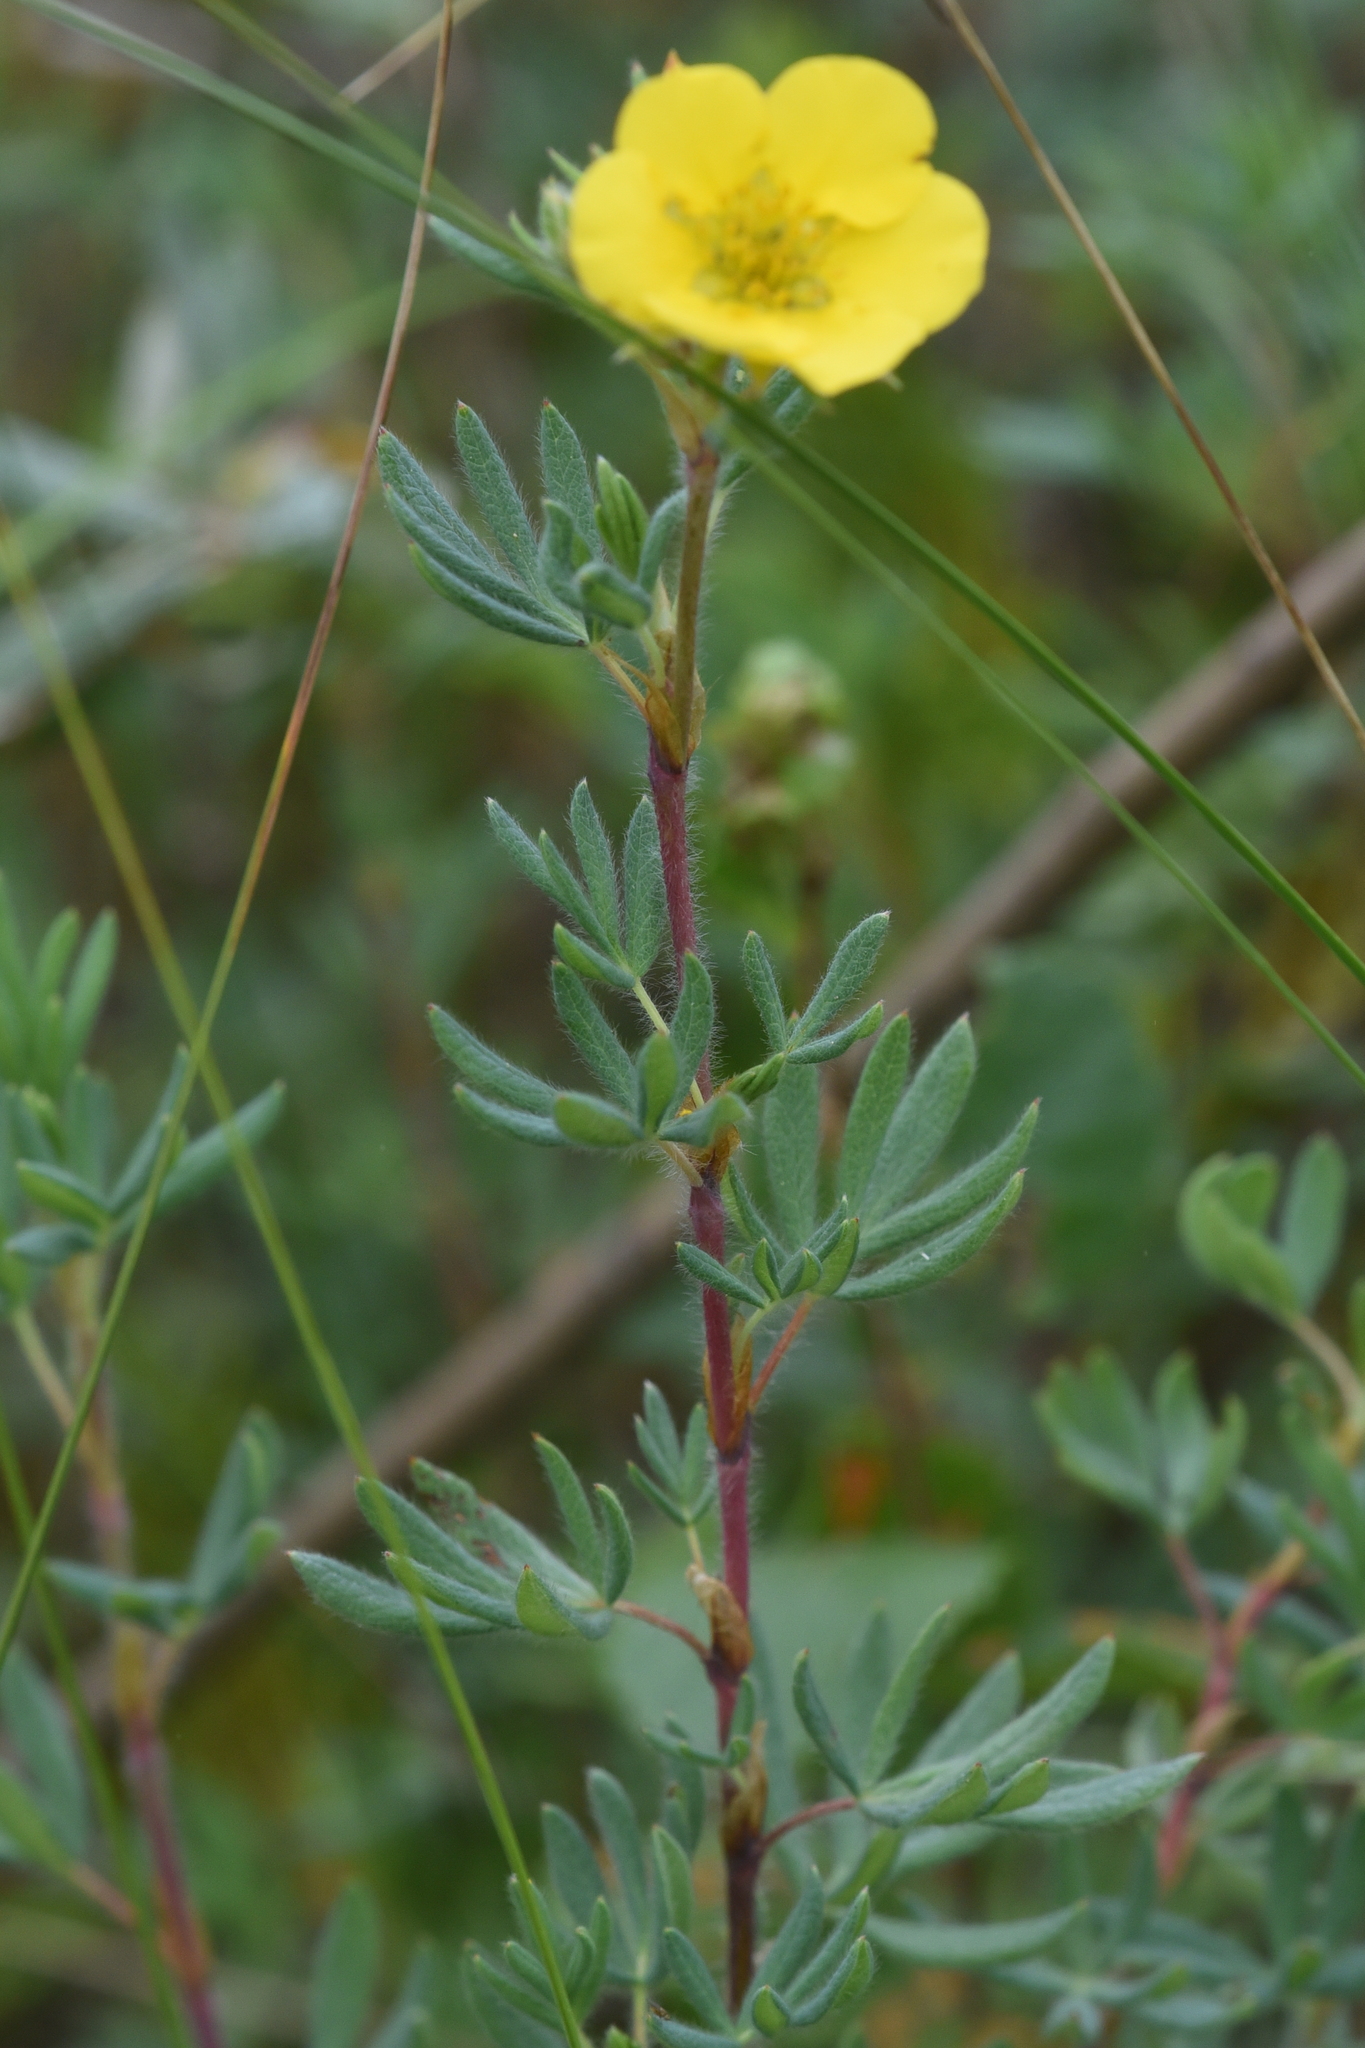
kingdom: Plantae
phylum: Tracheophyta
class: Magnoliopsida
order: Rosales
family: Rosaceae
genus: Dasiphora
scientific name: Dasiphora fruticosa
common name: Shrubby cinquefoil
